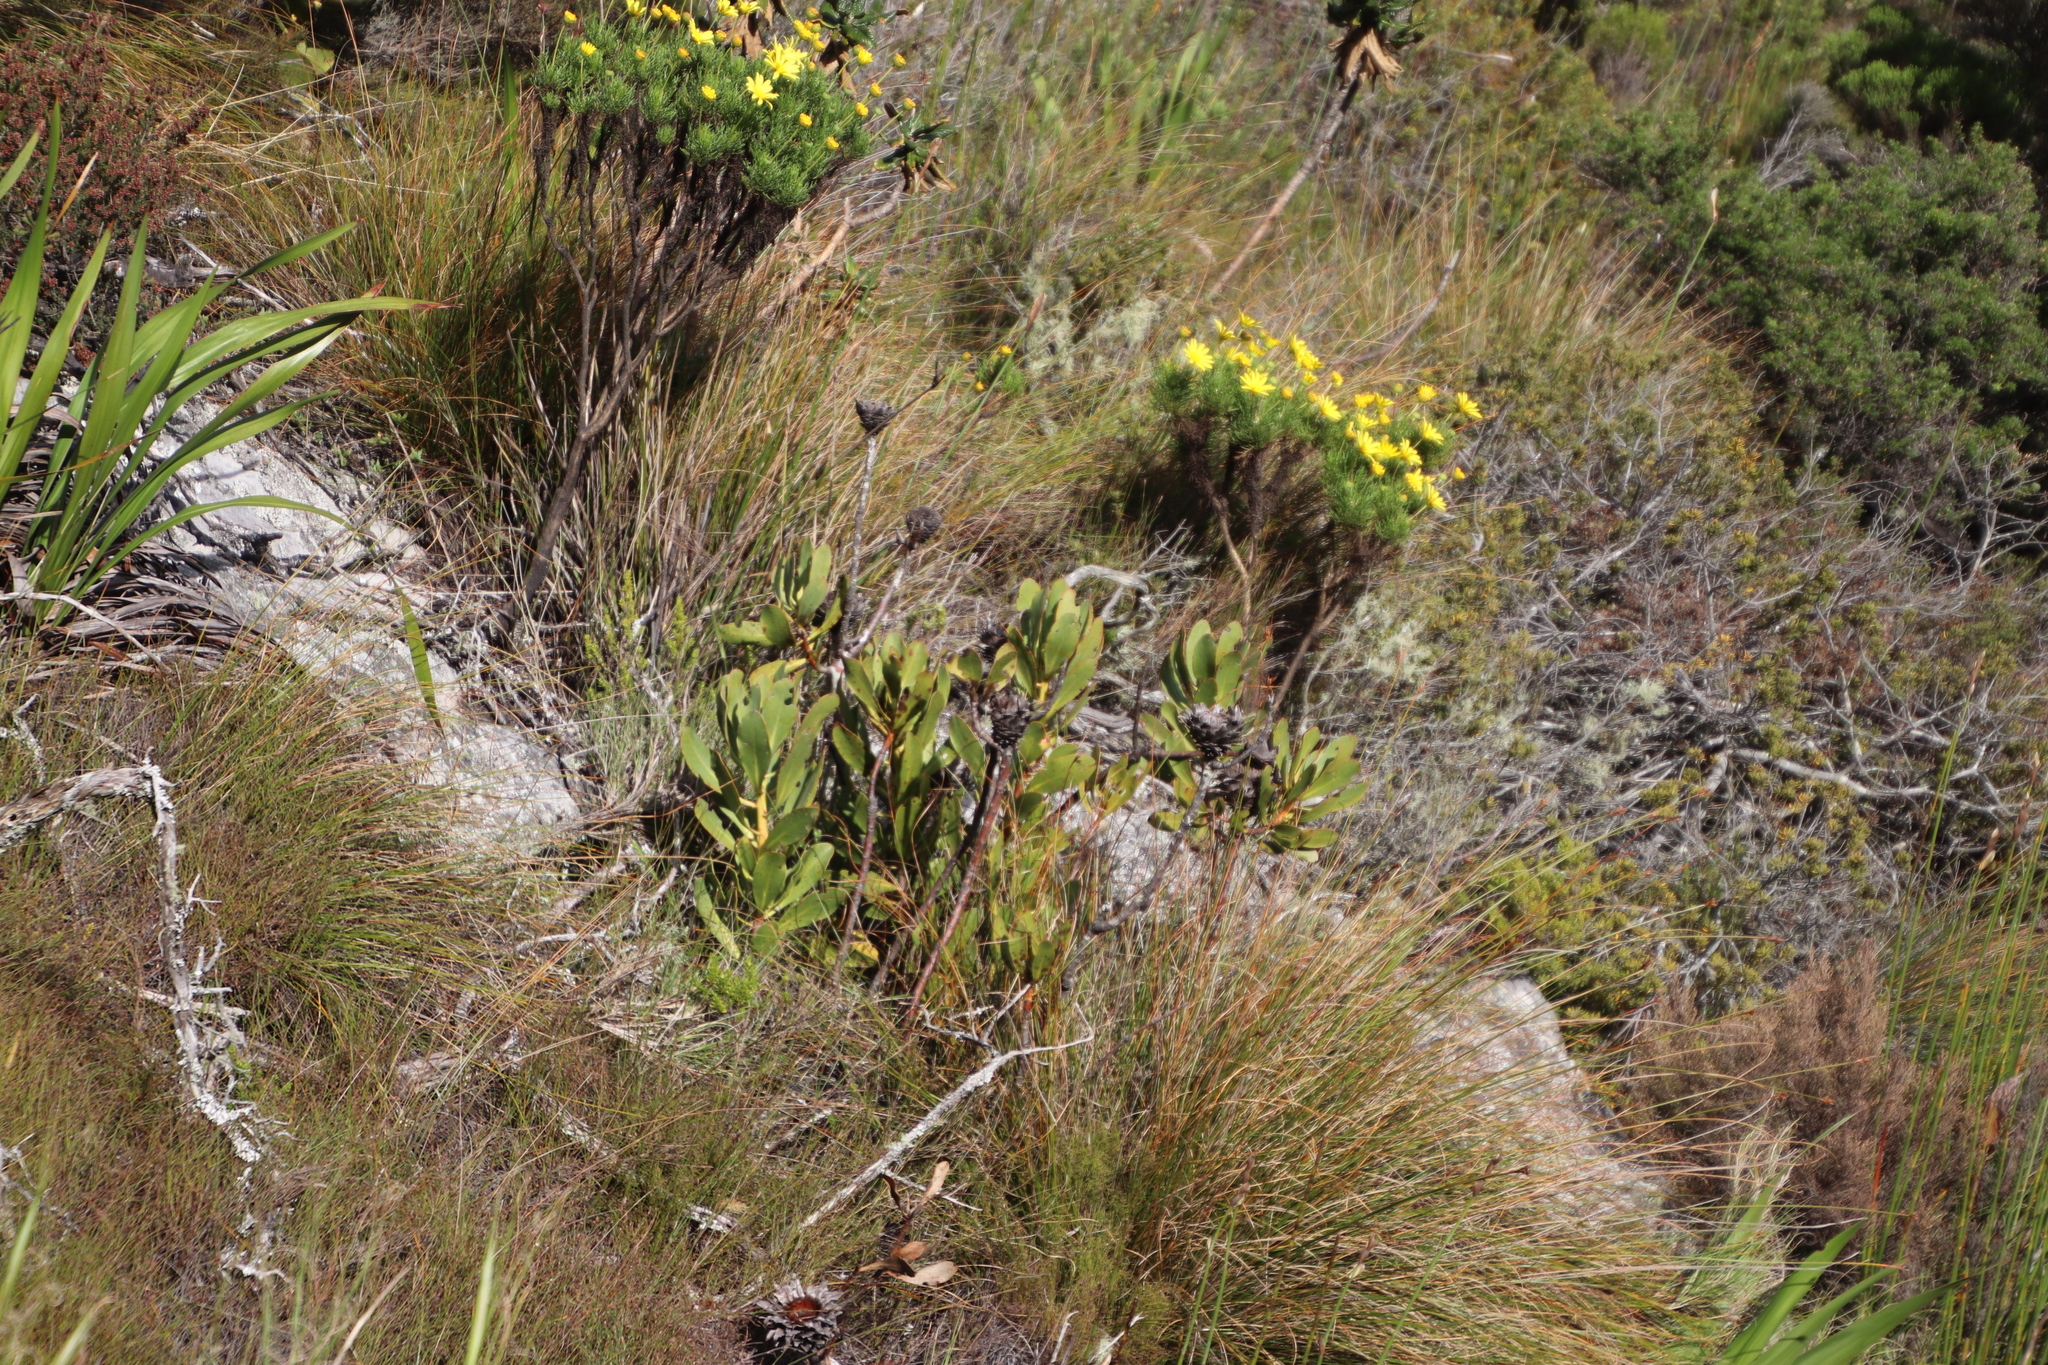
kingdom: Plantae
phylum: Tracheophyta
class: Magnoliopsida
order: Proteales
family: Proteaceae
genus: Protea
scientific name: Protea speciosa
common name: Brown-beard sugarbush
